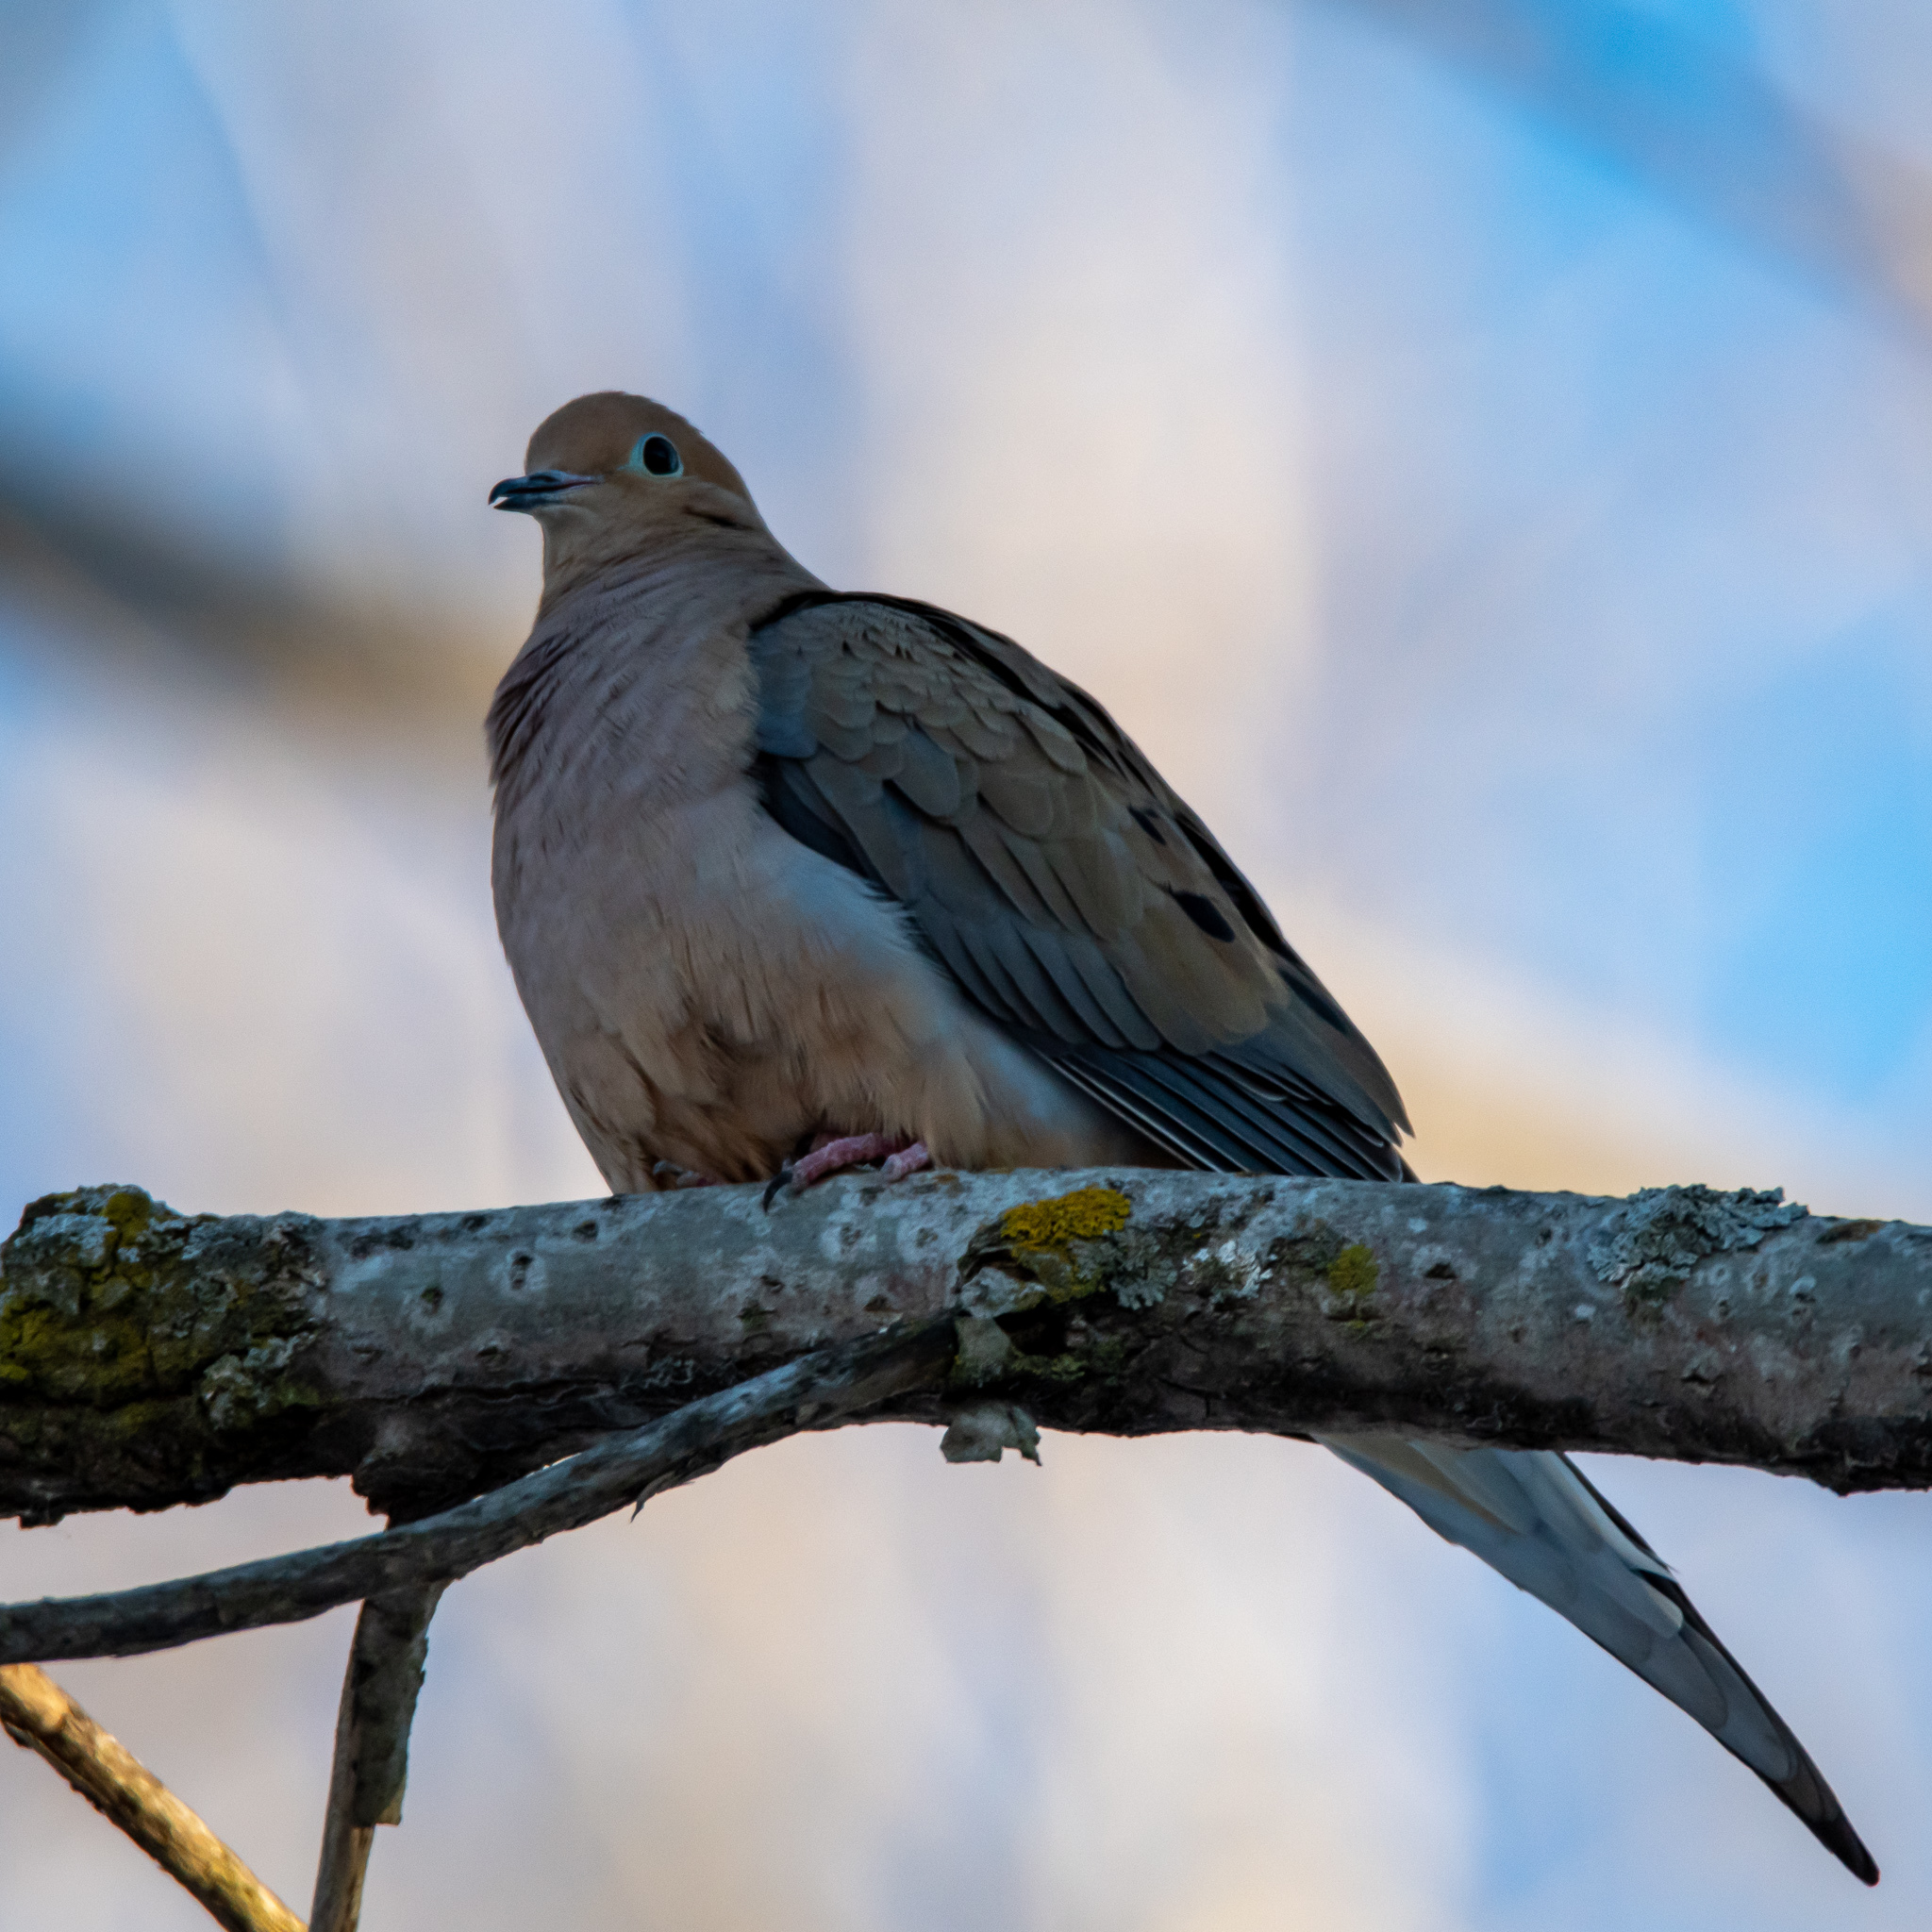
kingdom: Animalia
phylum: Chordata
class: Aves
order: Columbiformes
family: Columbidae
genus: Zenaida
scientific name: Zenaida macroura
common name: Mourning dove
